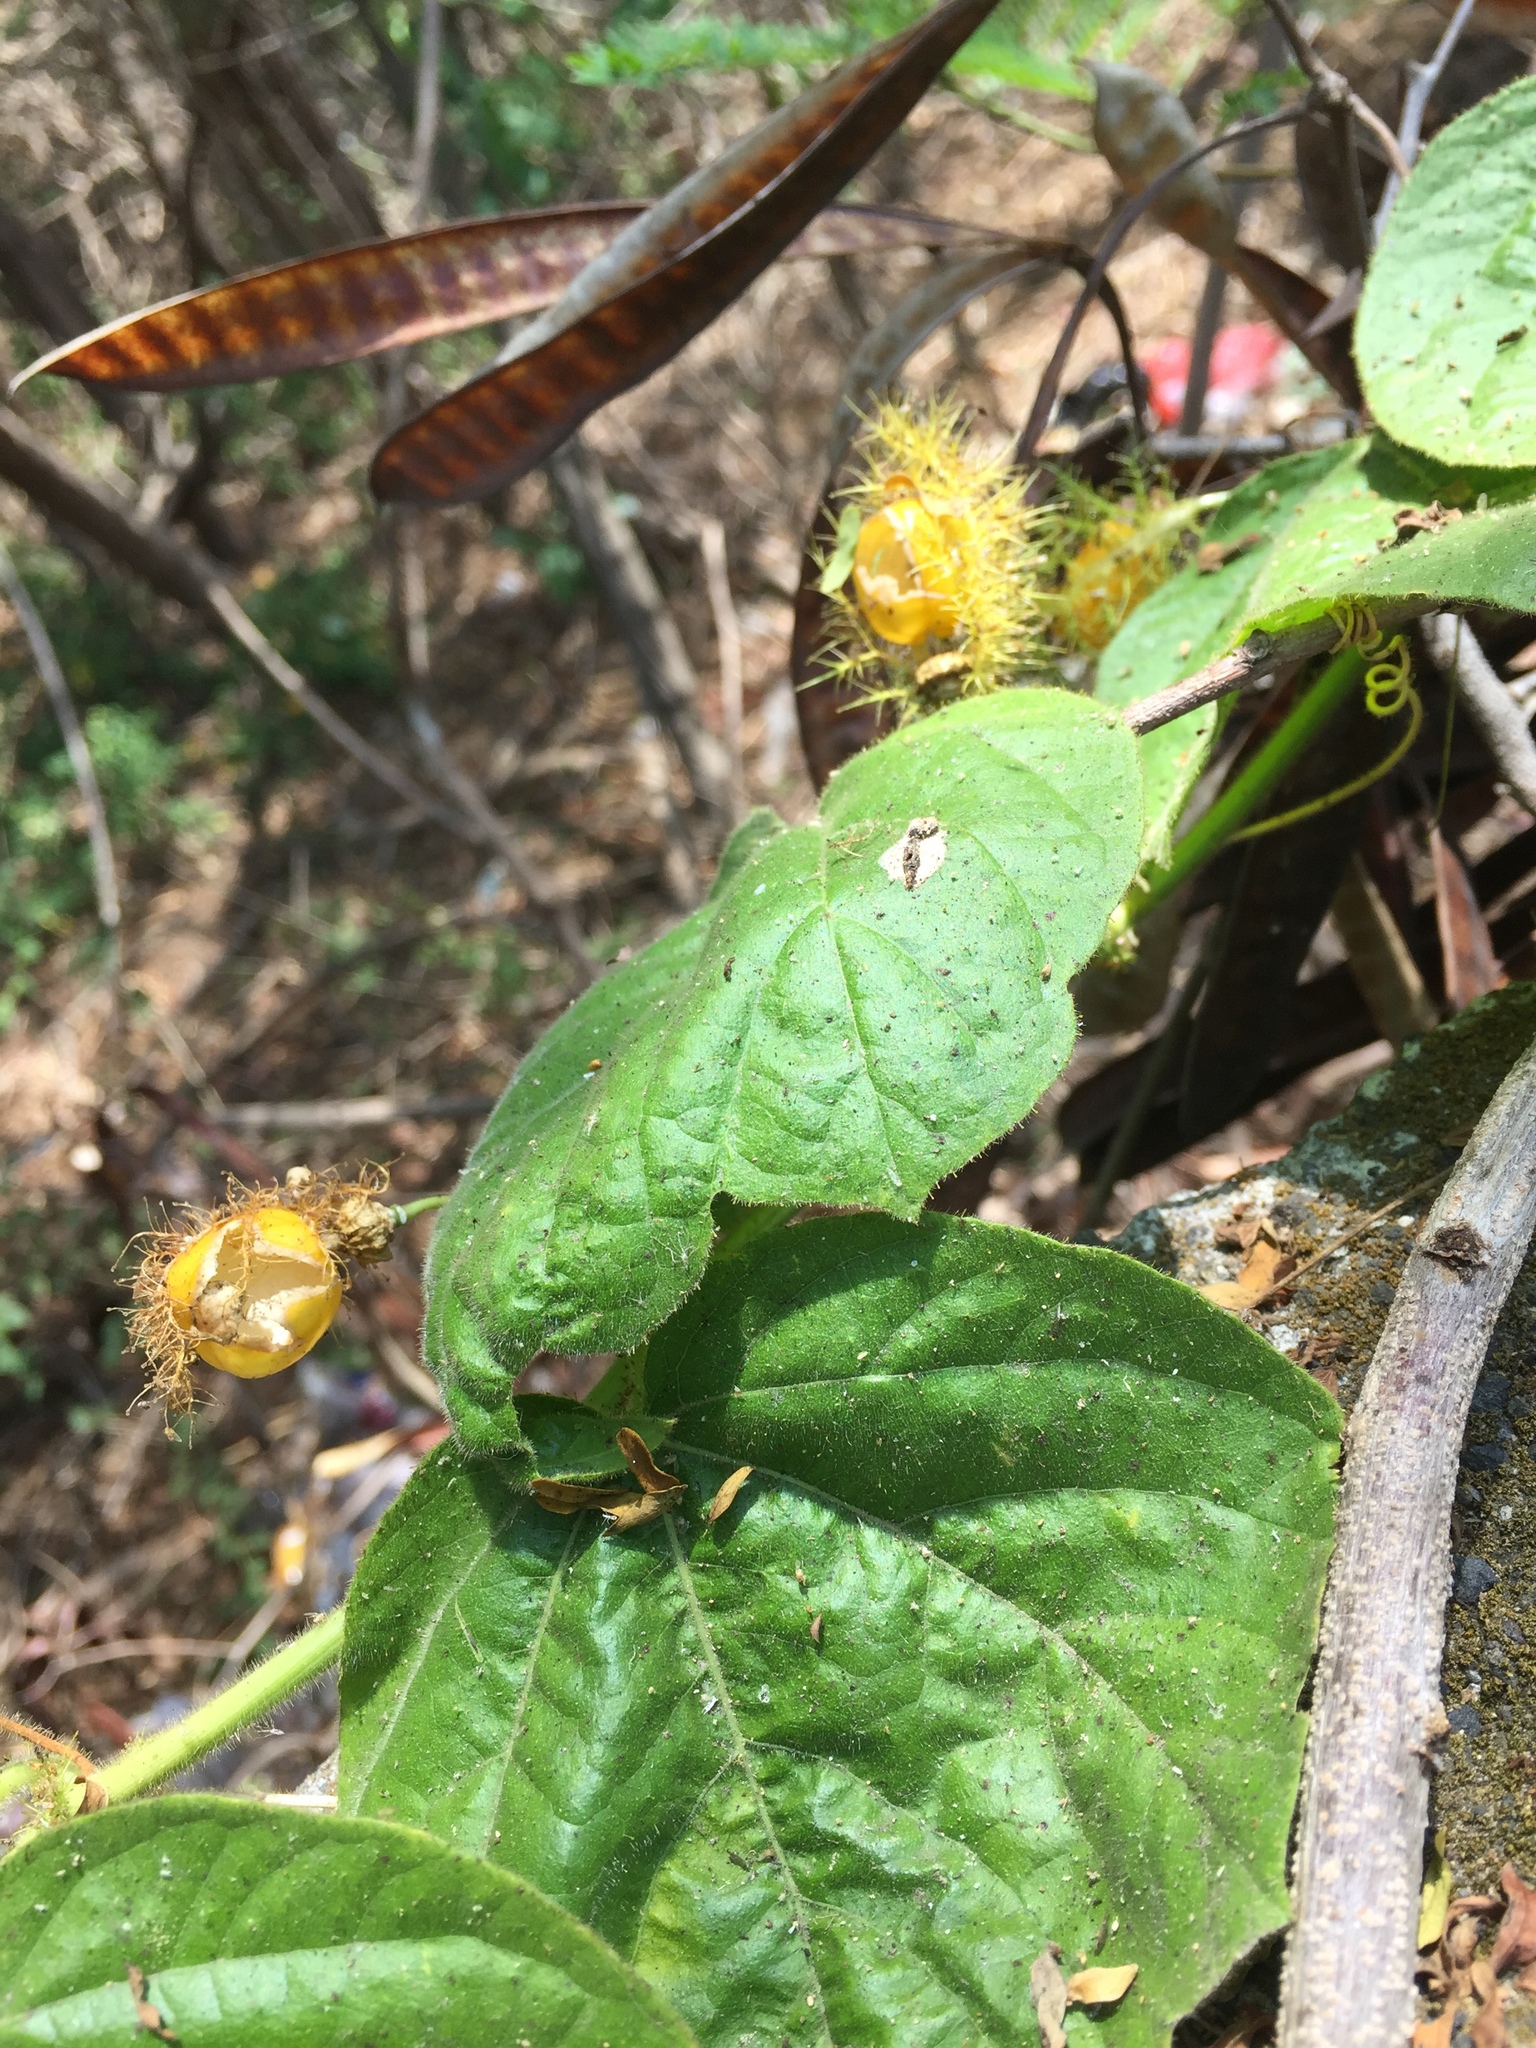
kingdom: Plantae
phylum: Tracheophyta
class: Magnoliopsida
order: Malpighiales
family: Passifloraceae
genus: Passiflora
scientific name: Passiflora vesicaria
